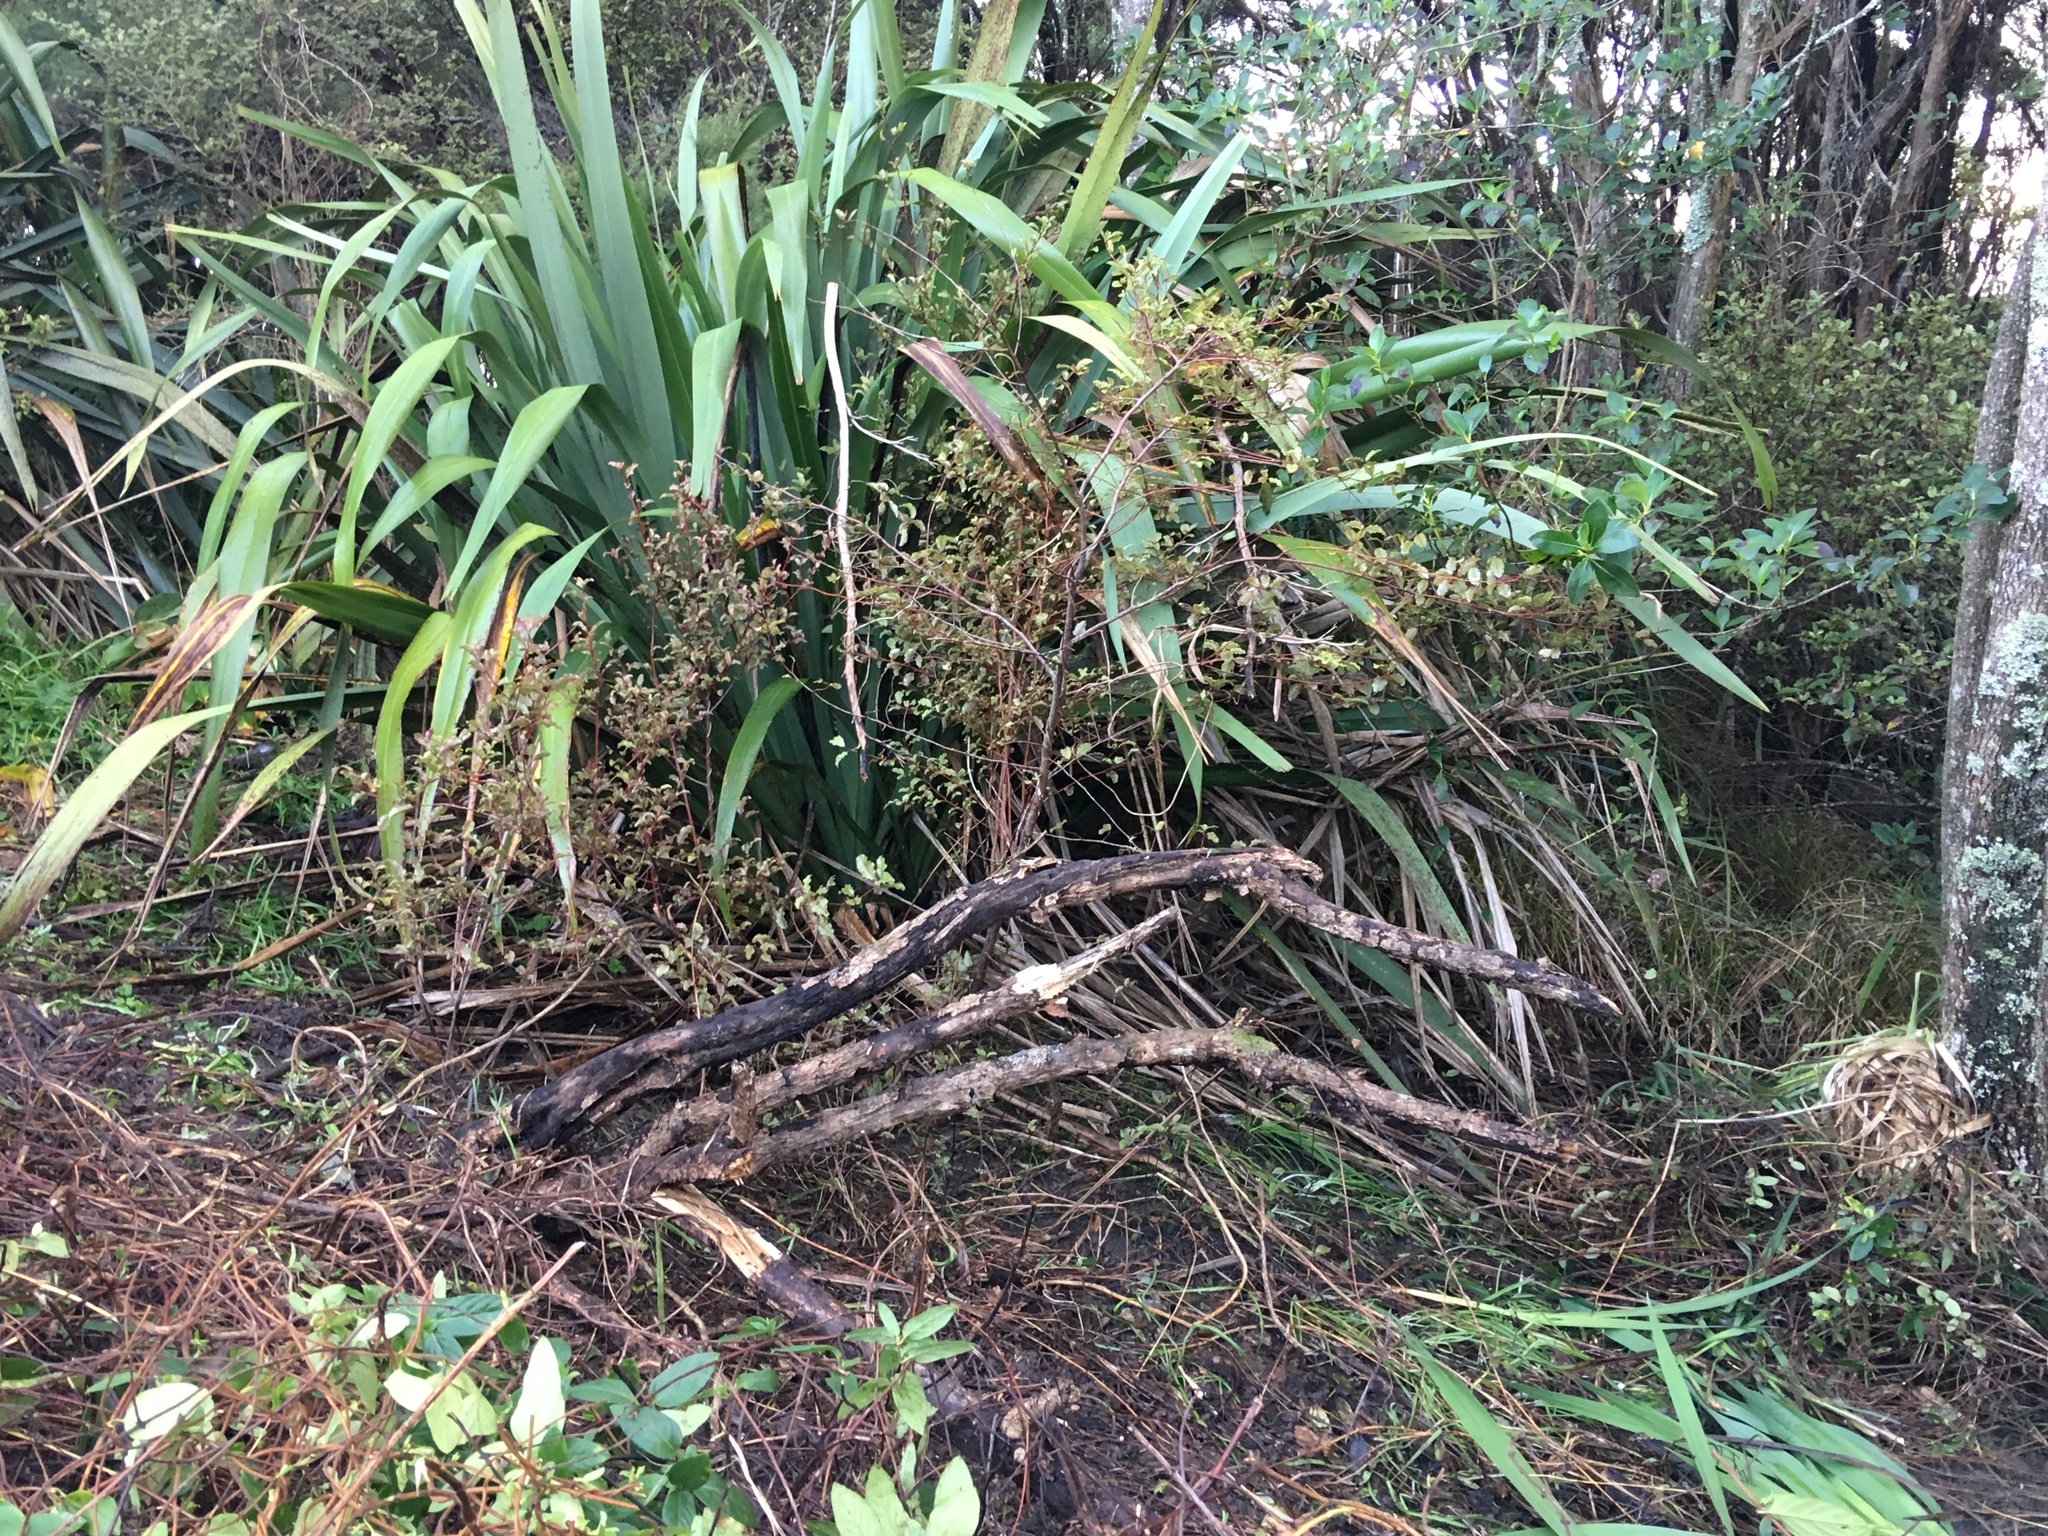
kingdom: Plantae
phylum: Tracheophyta
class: Magnoliopsida
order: Ericales
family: Primulaceae
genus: Myrsine
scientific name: Myrsine australis
